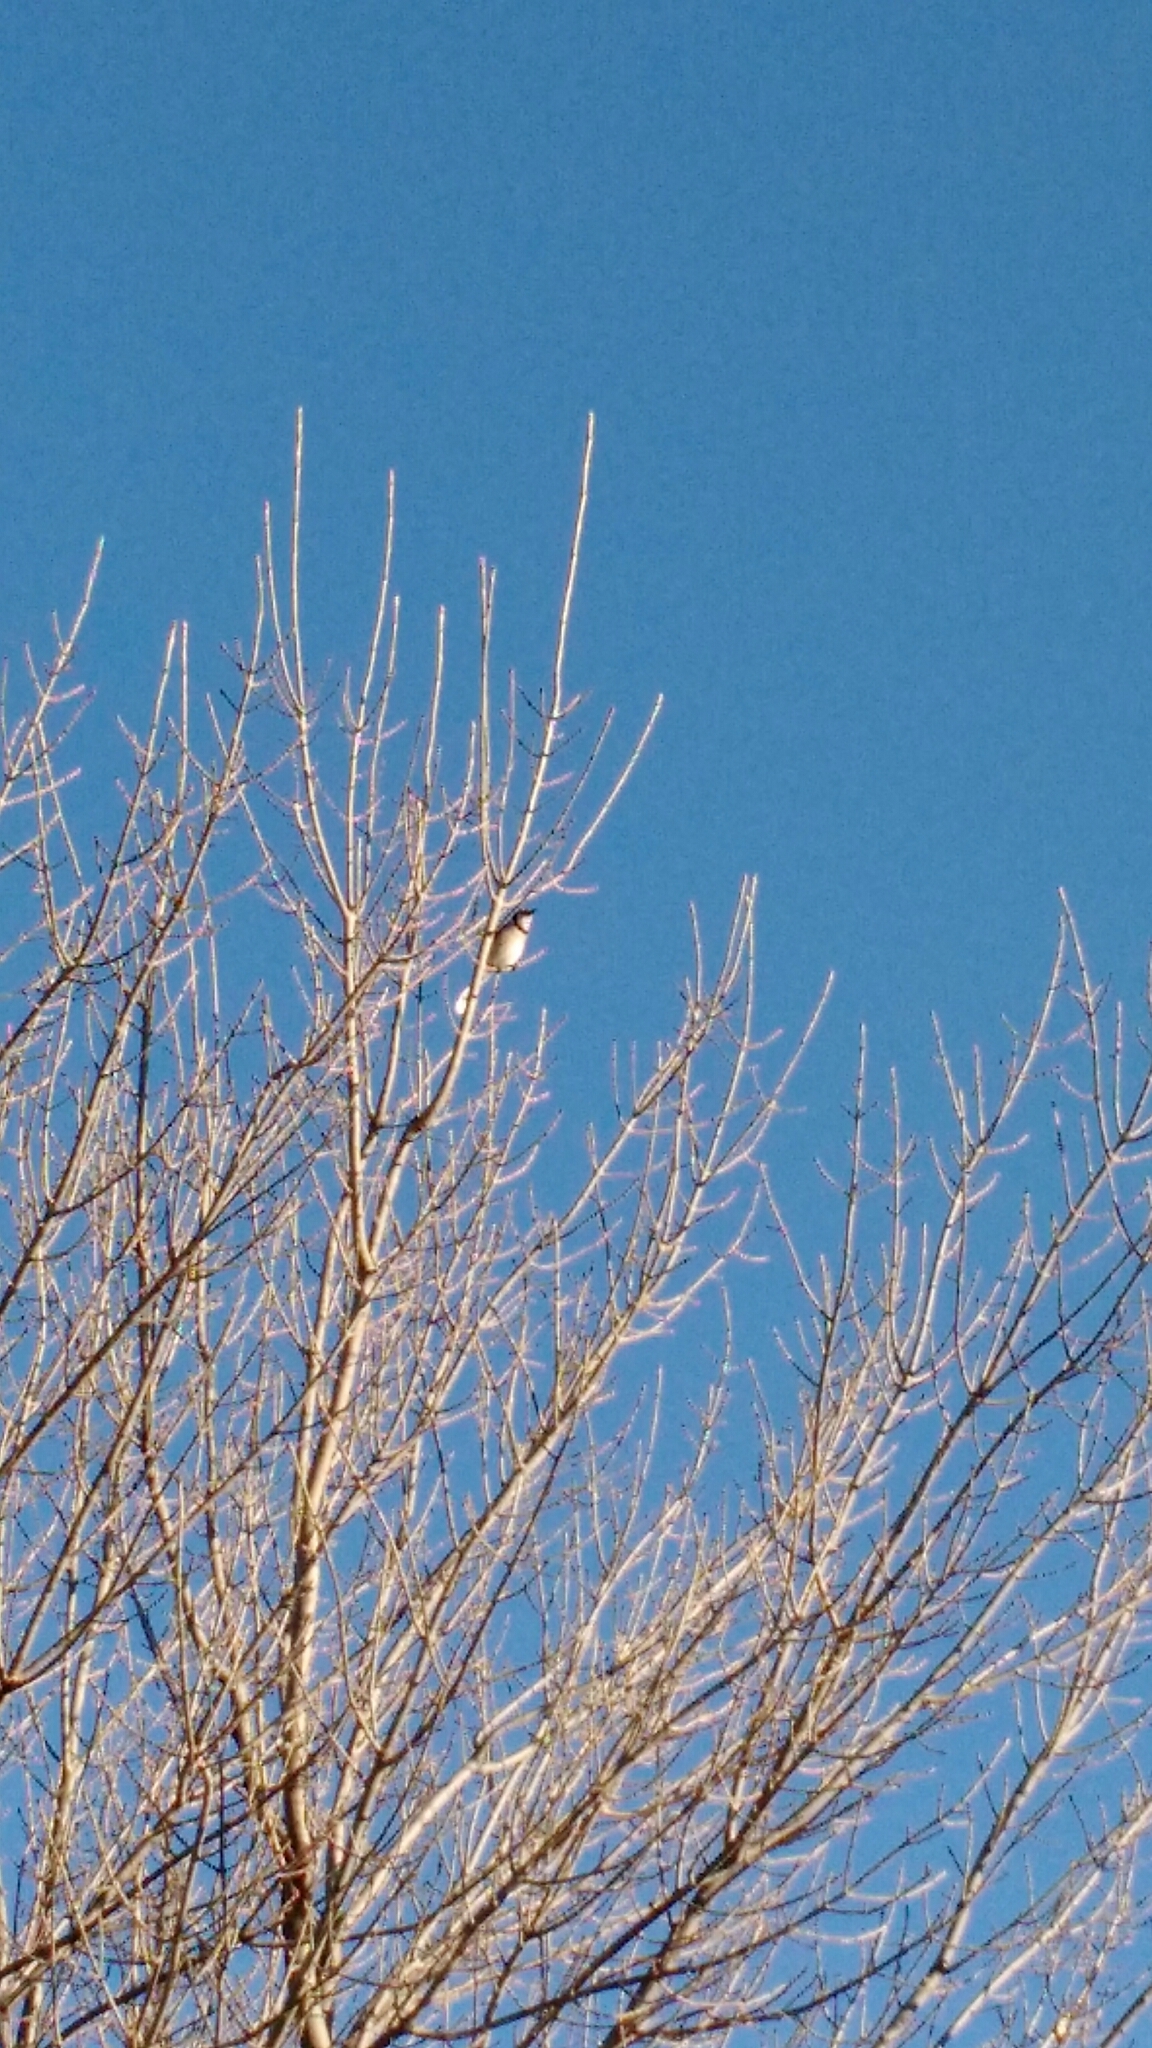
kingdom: Animalia
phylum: Chordata
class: Aves
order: Passeriformes
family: Corvidae
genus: Cyanocitta
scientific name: Cyanocitta cristata
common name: Blue jay
